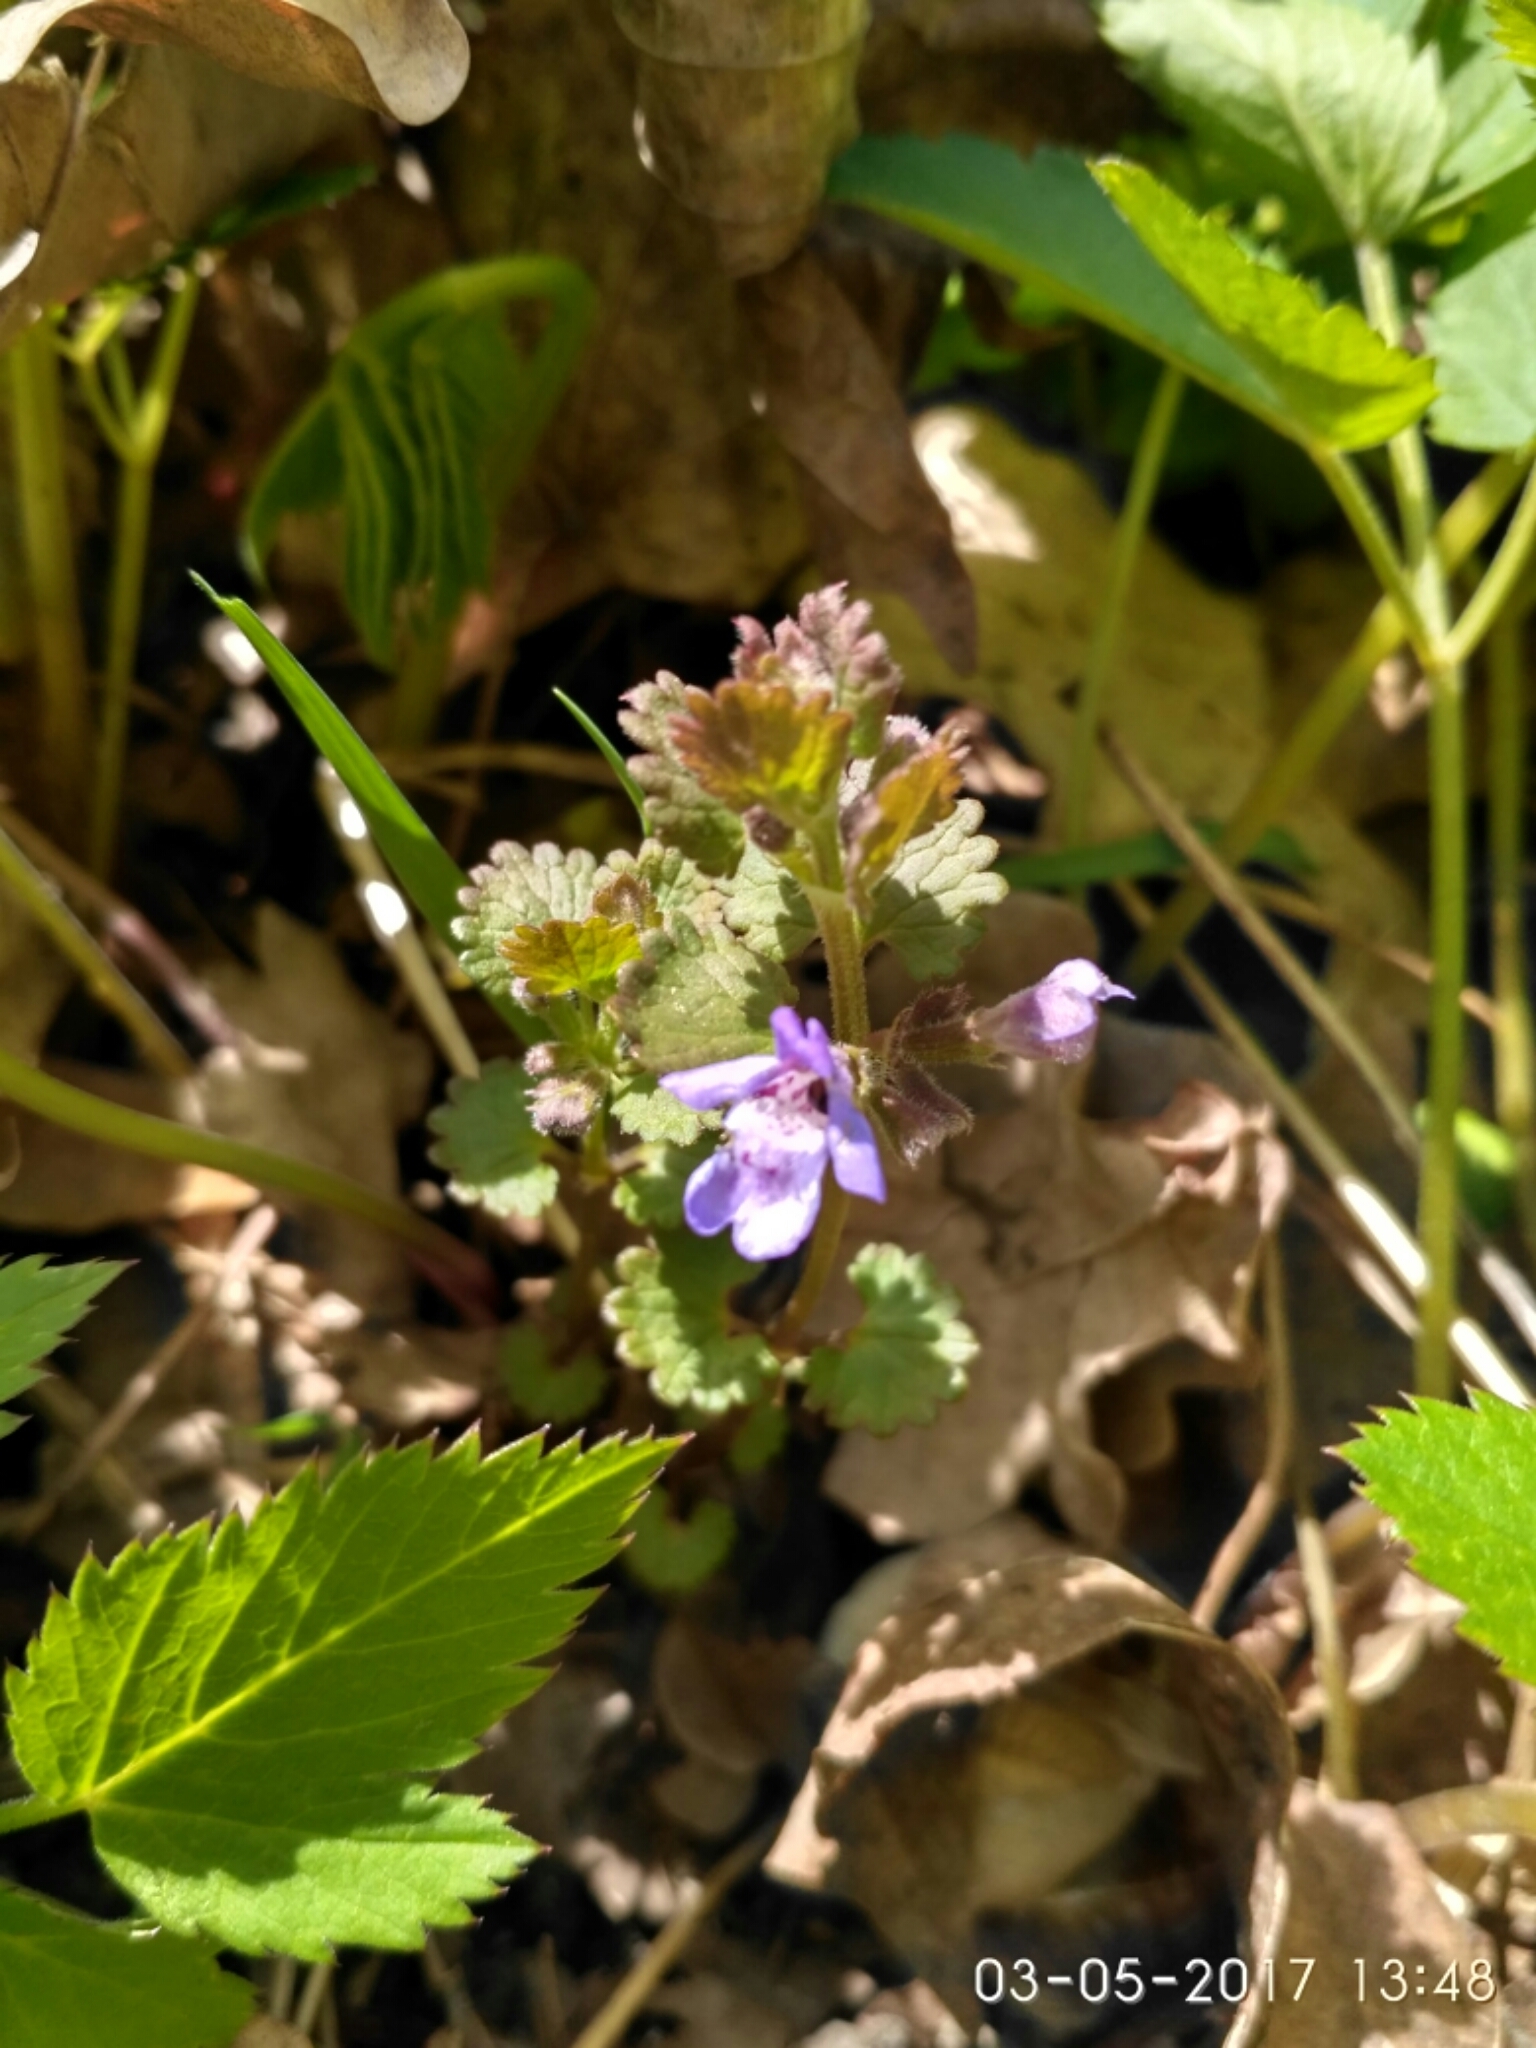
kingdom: Plantae
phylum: Tracheophyta
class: Magnoliopsida
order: Lamiales
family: Lamiaceae
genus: Glechoma
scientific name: Glechoma hederacea
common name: Ground ivy
